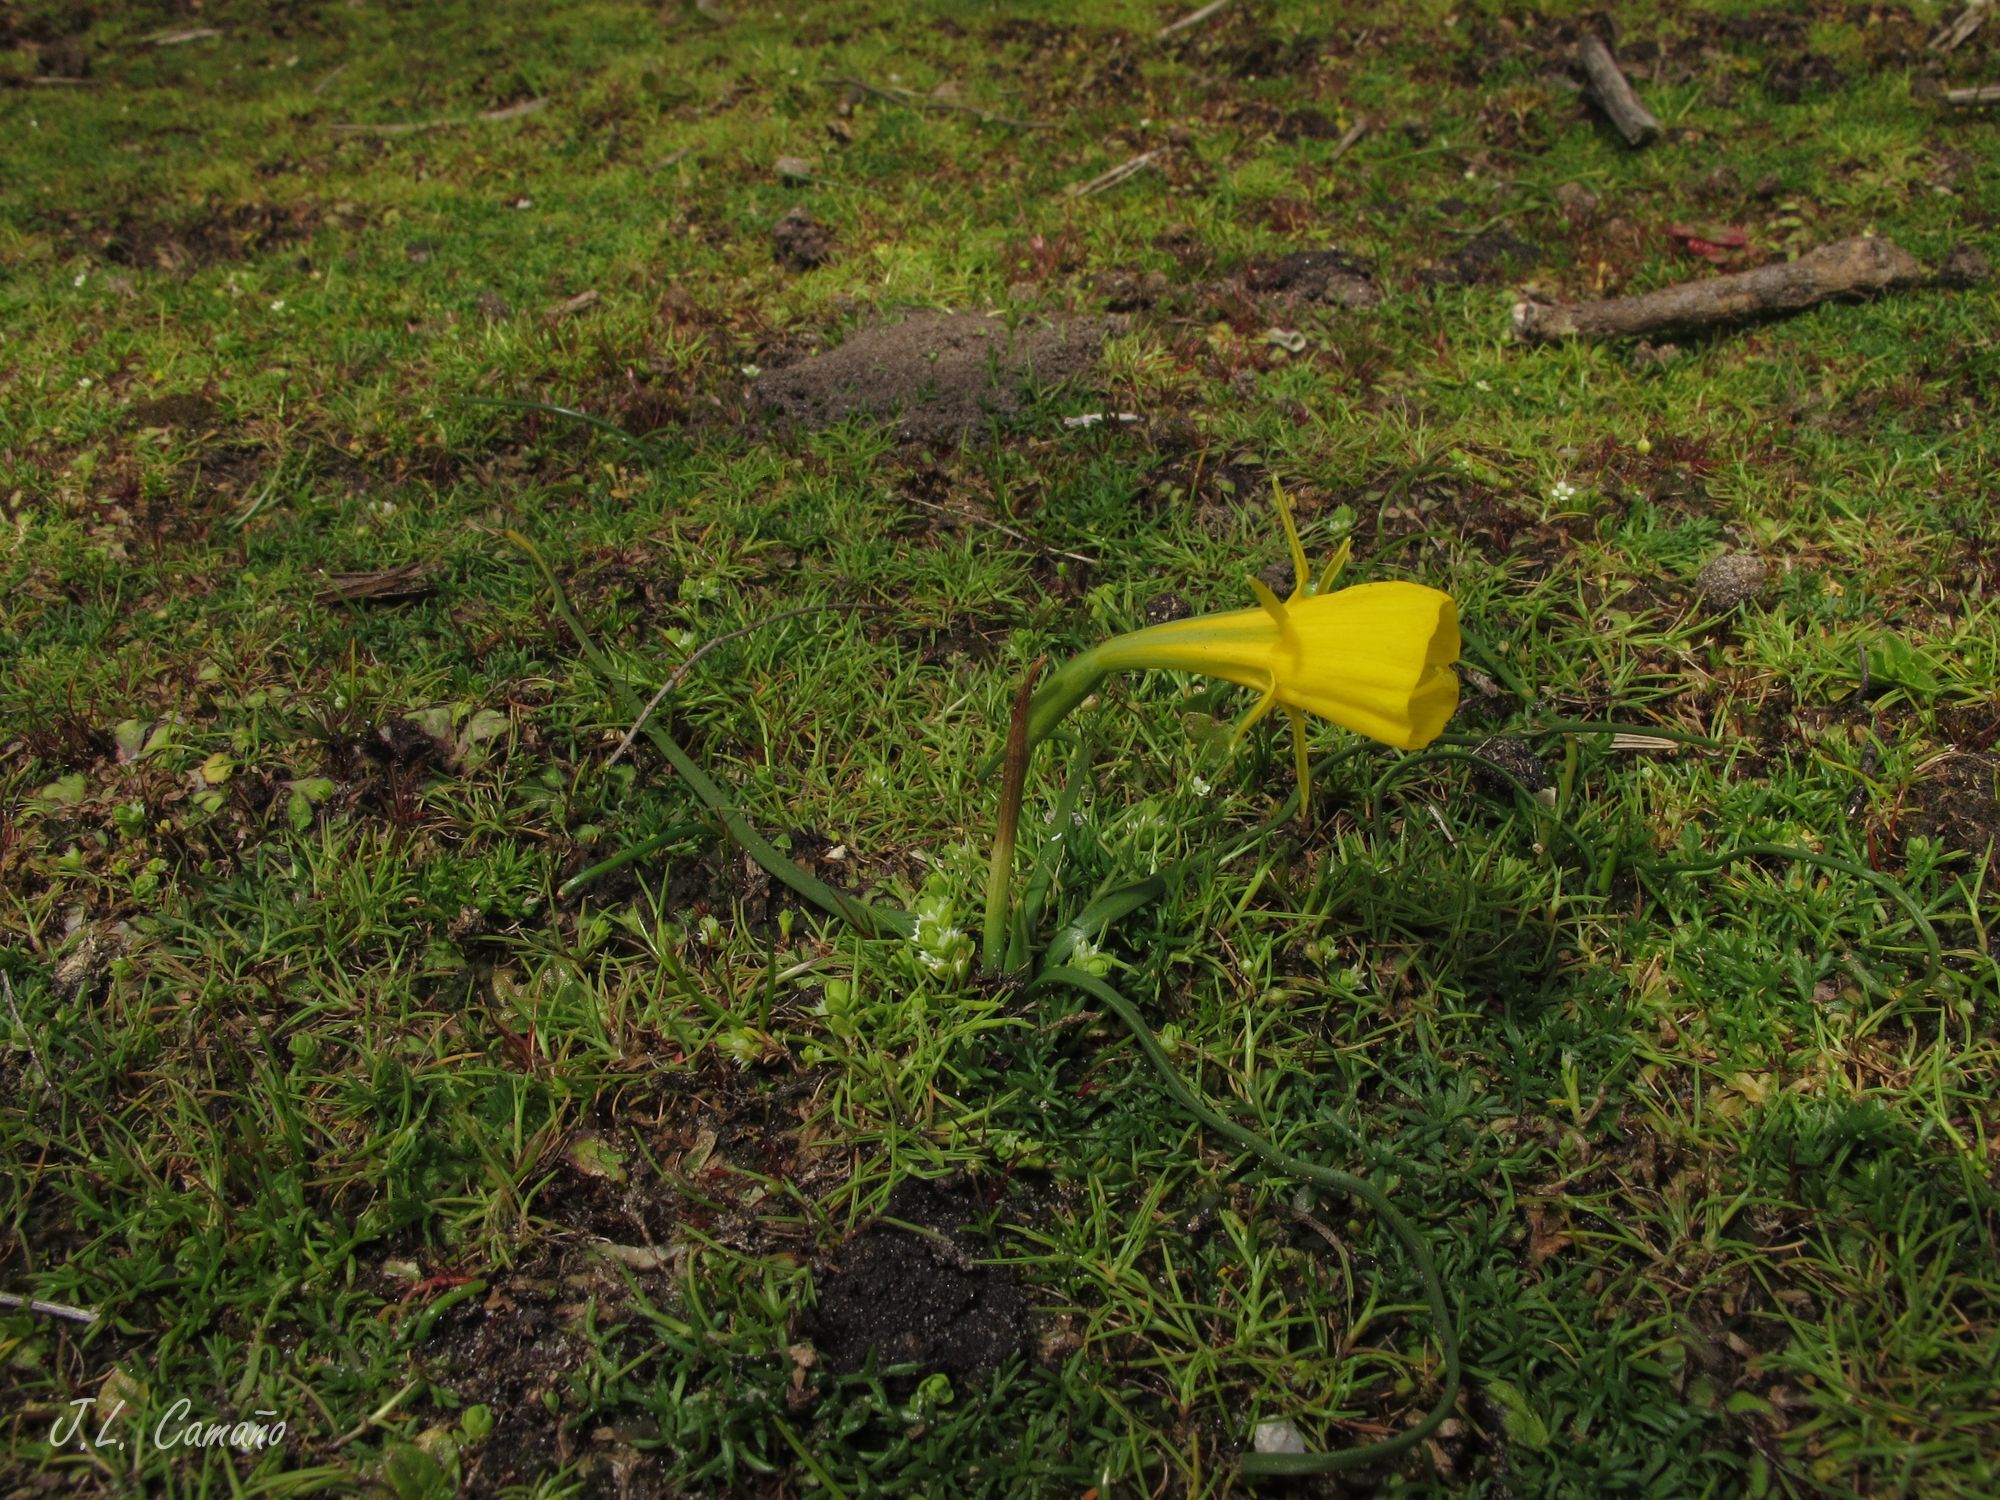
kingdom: Plantae
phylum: Tracheophyta
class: Liliopsida
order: Asparagales
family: Amaryllidaceae
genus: Narcissus
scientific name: Narcissus bulbocodium
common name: Hoop-petticoat daffodil
